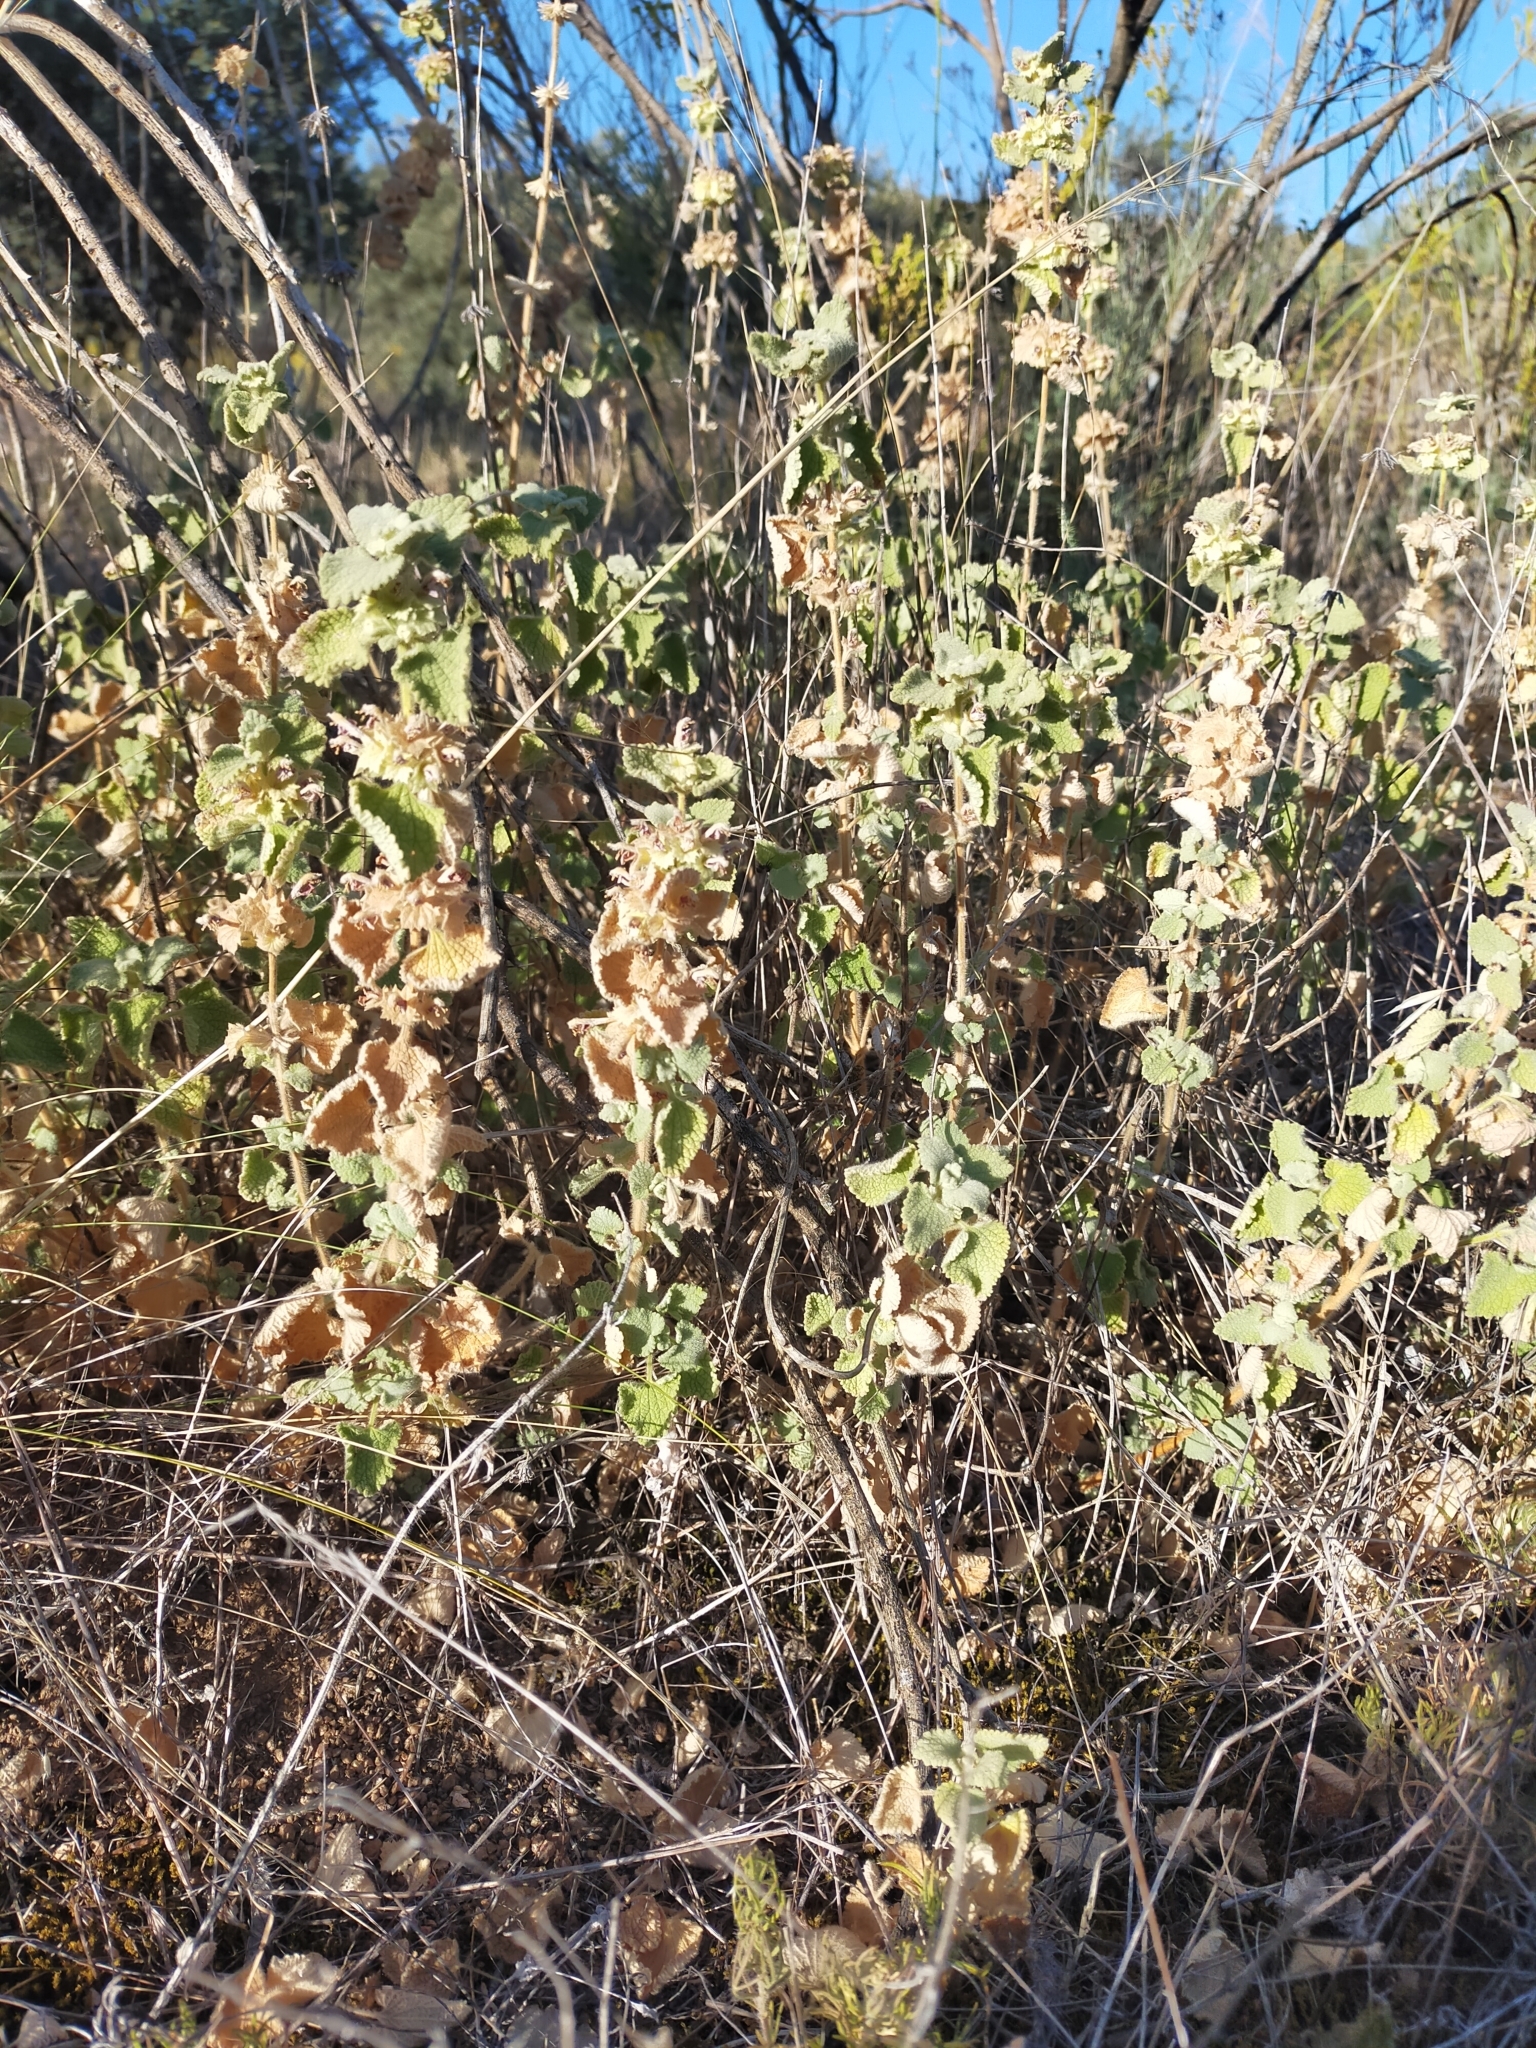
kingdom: Plantae
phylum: Tracheophyta
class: Magnoliopsida
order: Lamiales
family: Lamiaceae
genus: Pseudodictamnus
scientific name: Pseudodictamnus hirsutus
